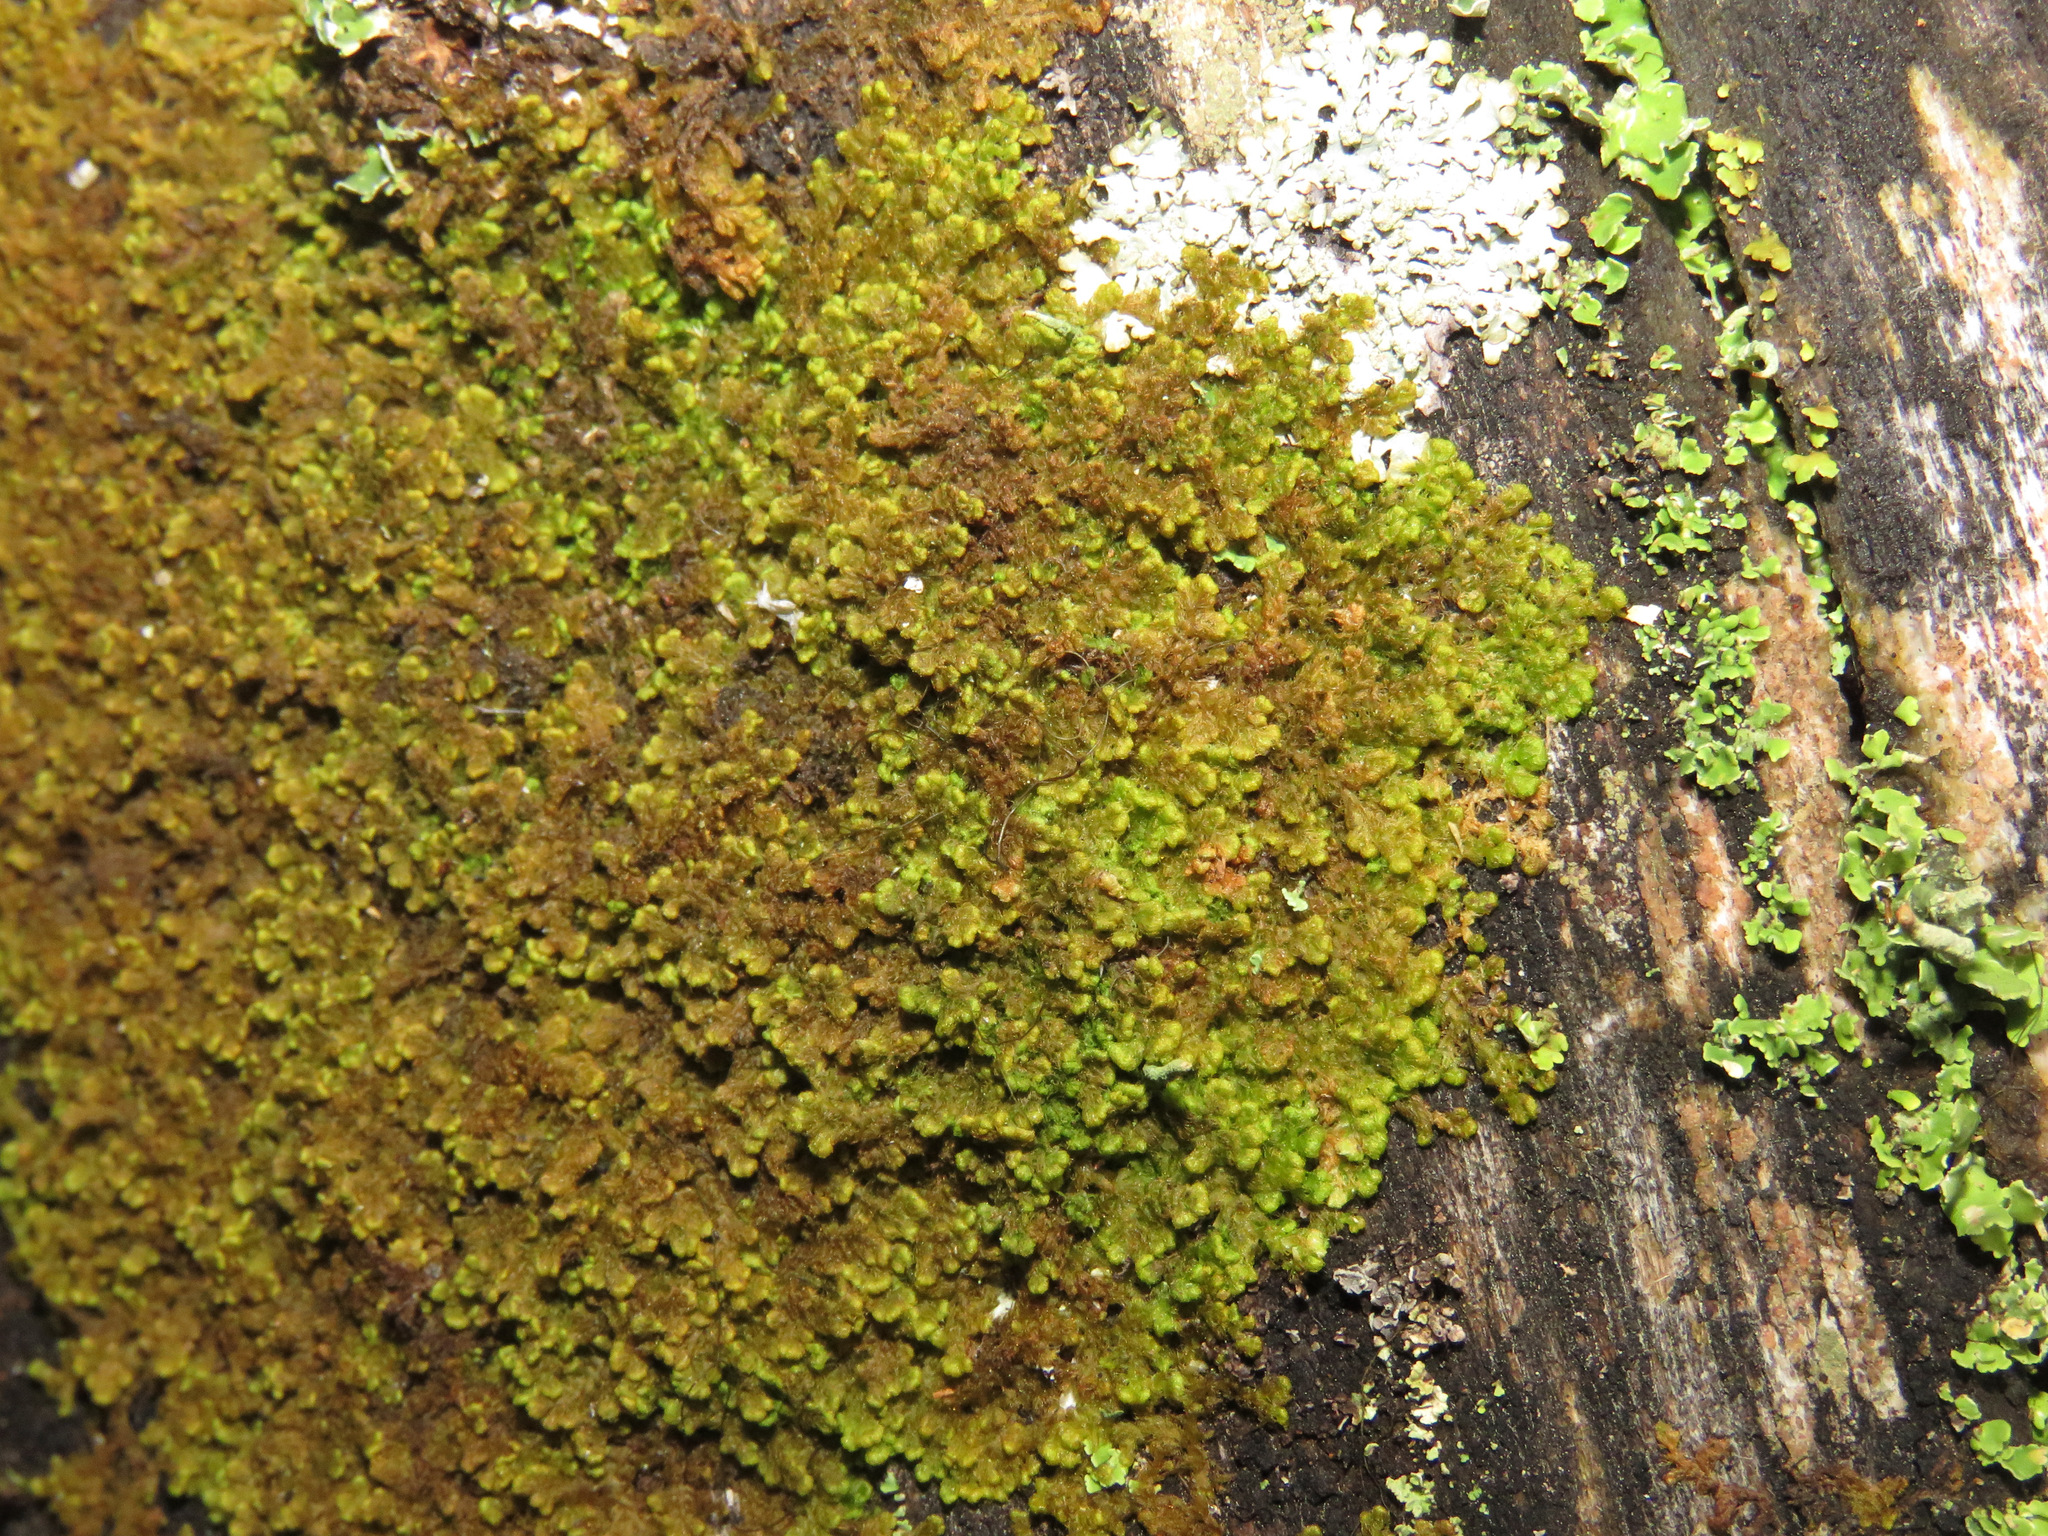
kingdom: Plantae
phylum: Marchantiophyta
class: Jungermanniopsida
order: Ptilidiales
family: Ptilidiaceae
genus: Ptilidium
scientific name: Ptilidium pulcherrimum
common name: Tree fringewort
